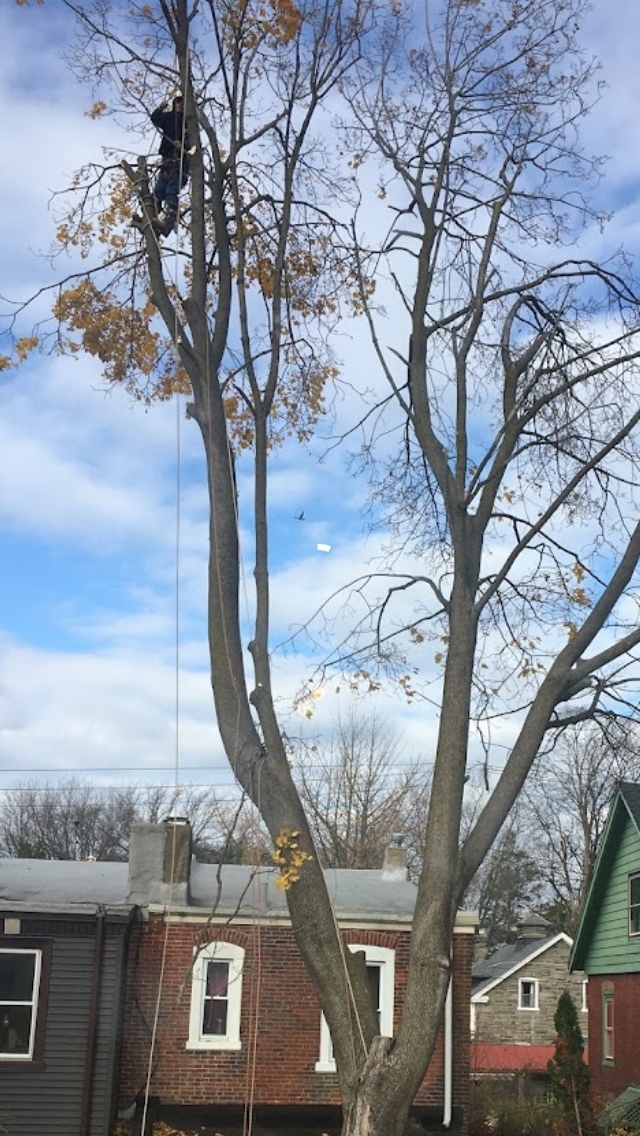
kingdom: Plantae
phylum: Tracheophyta
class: Magnoliopsida
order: Sapindales
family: Sapindaceae
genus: Acer
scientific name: Acer platanoides
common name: Norway maple
